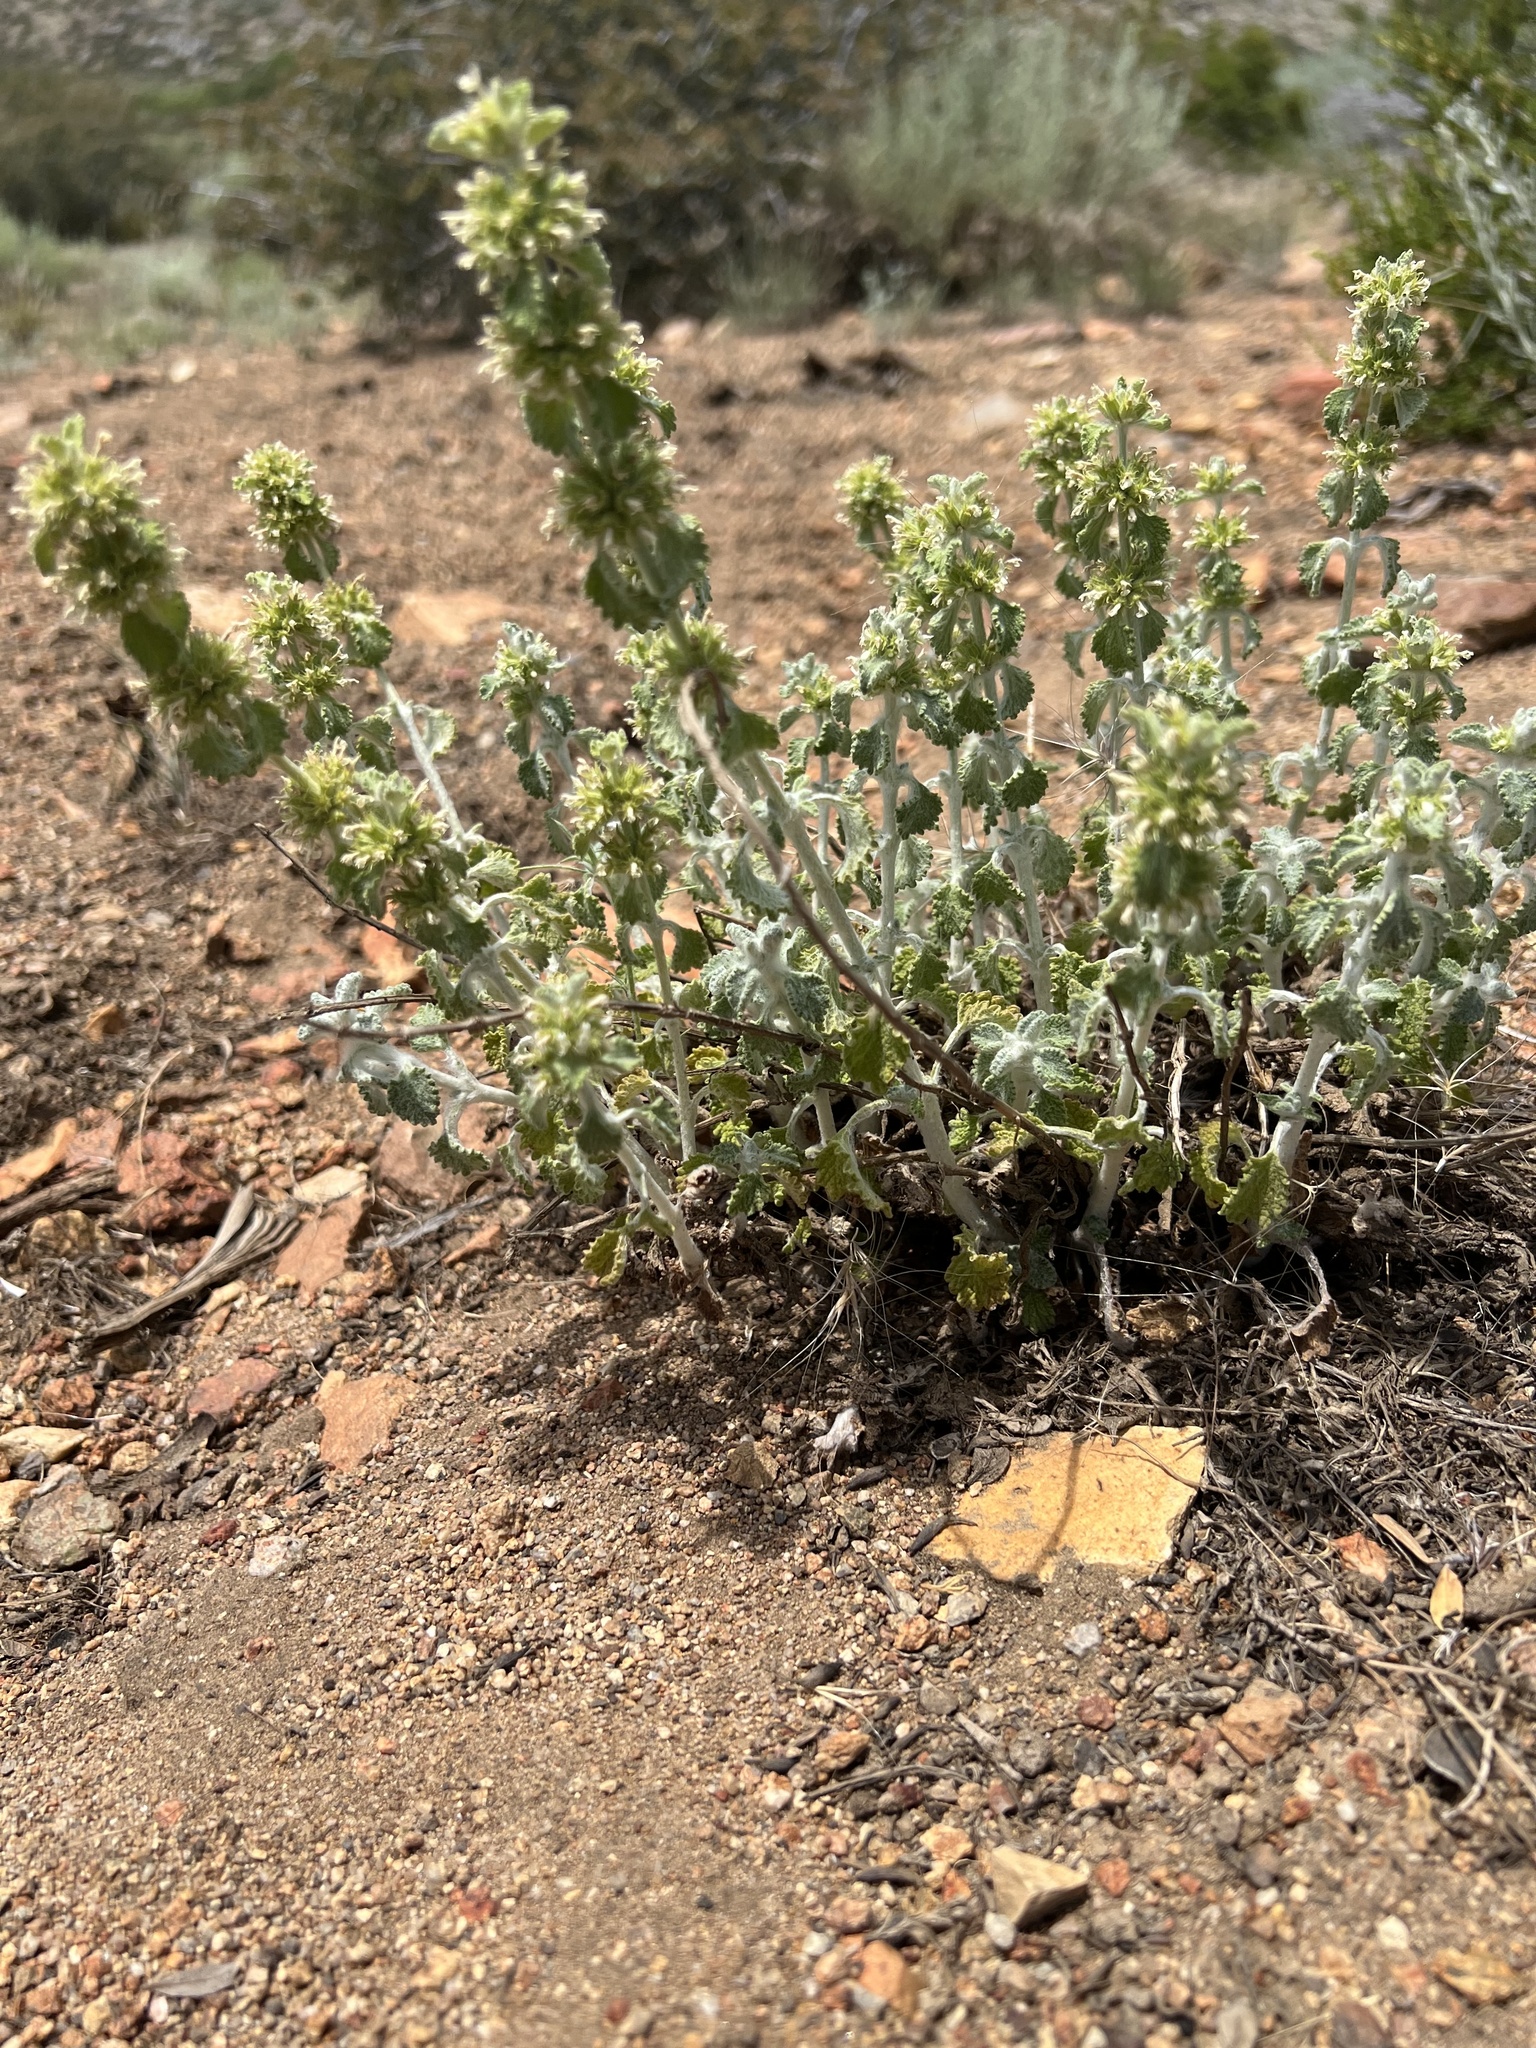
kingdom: Plantae
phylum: Tracheophyta
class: Magnoliopsida
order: Lamiales
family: Lamiaceae
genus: Marrubium
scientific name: Marrubium vulgare
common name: Horehound
